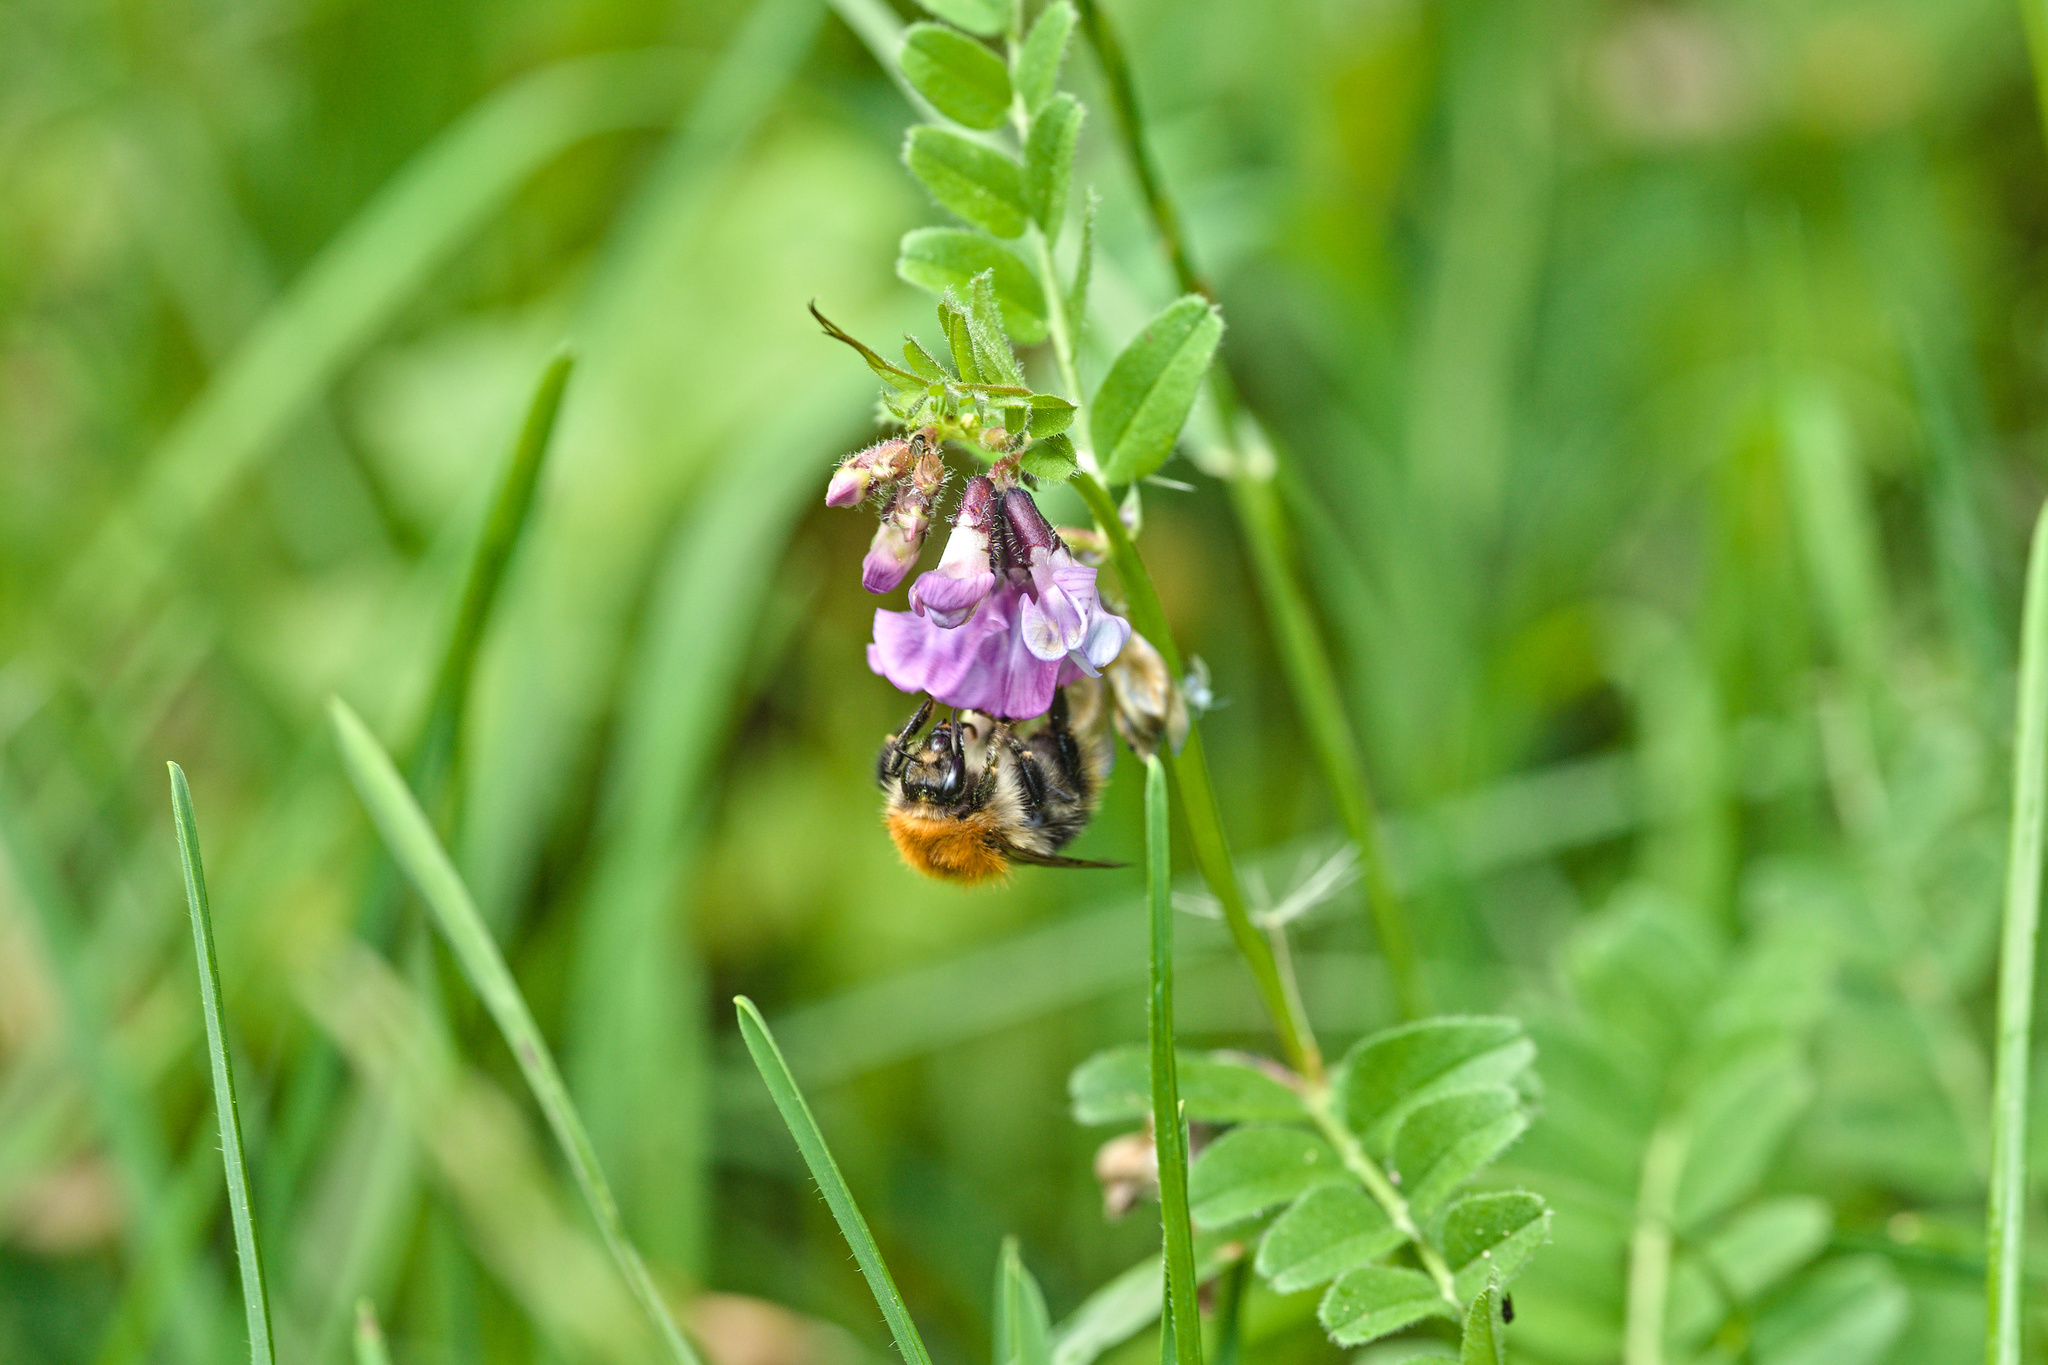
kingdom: Animalia
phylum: Arthropoda
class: Insecta
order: Hymenoptera
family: Apidae
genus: Bombus
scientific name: Bombus pascuorum
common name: Common carder bee
